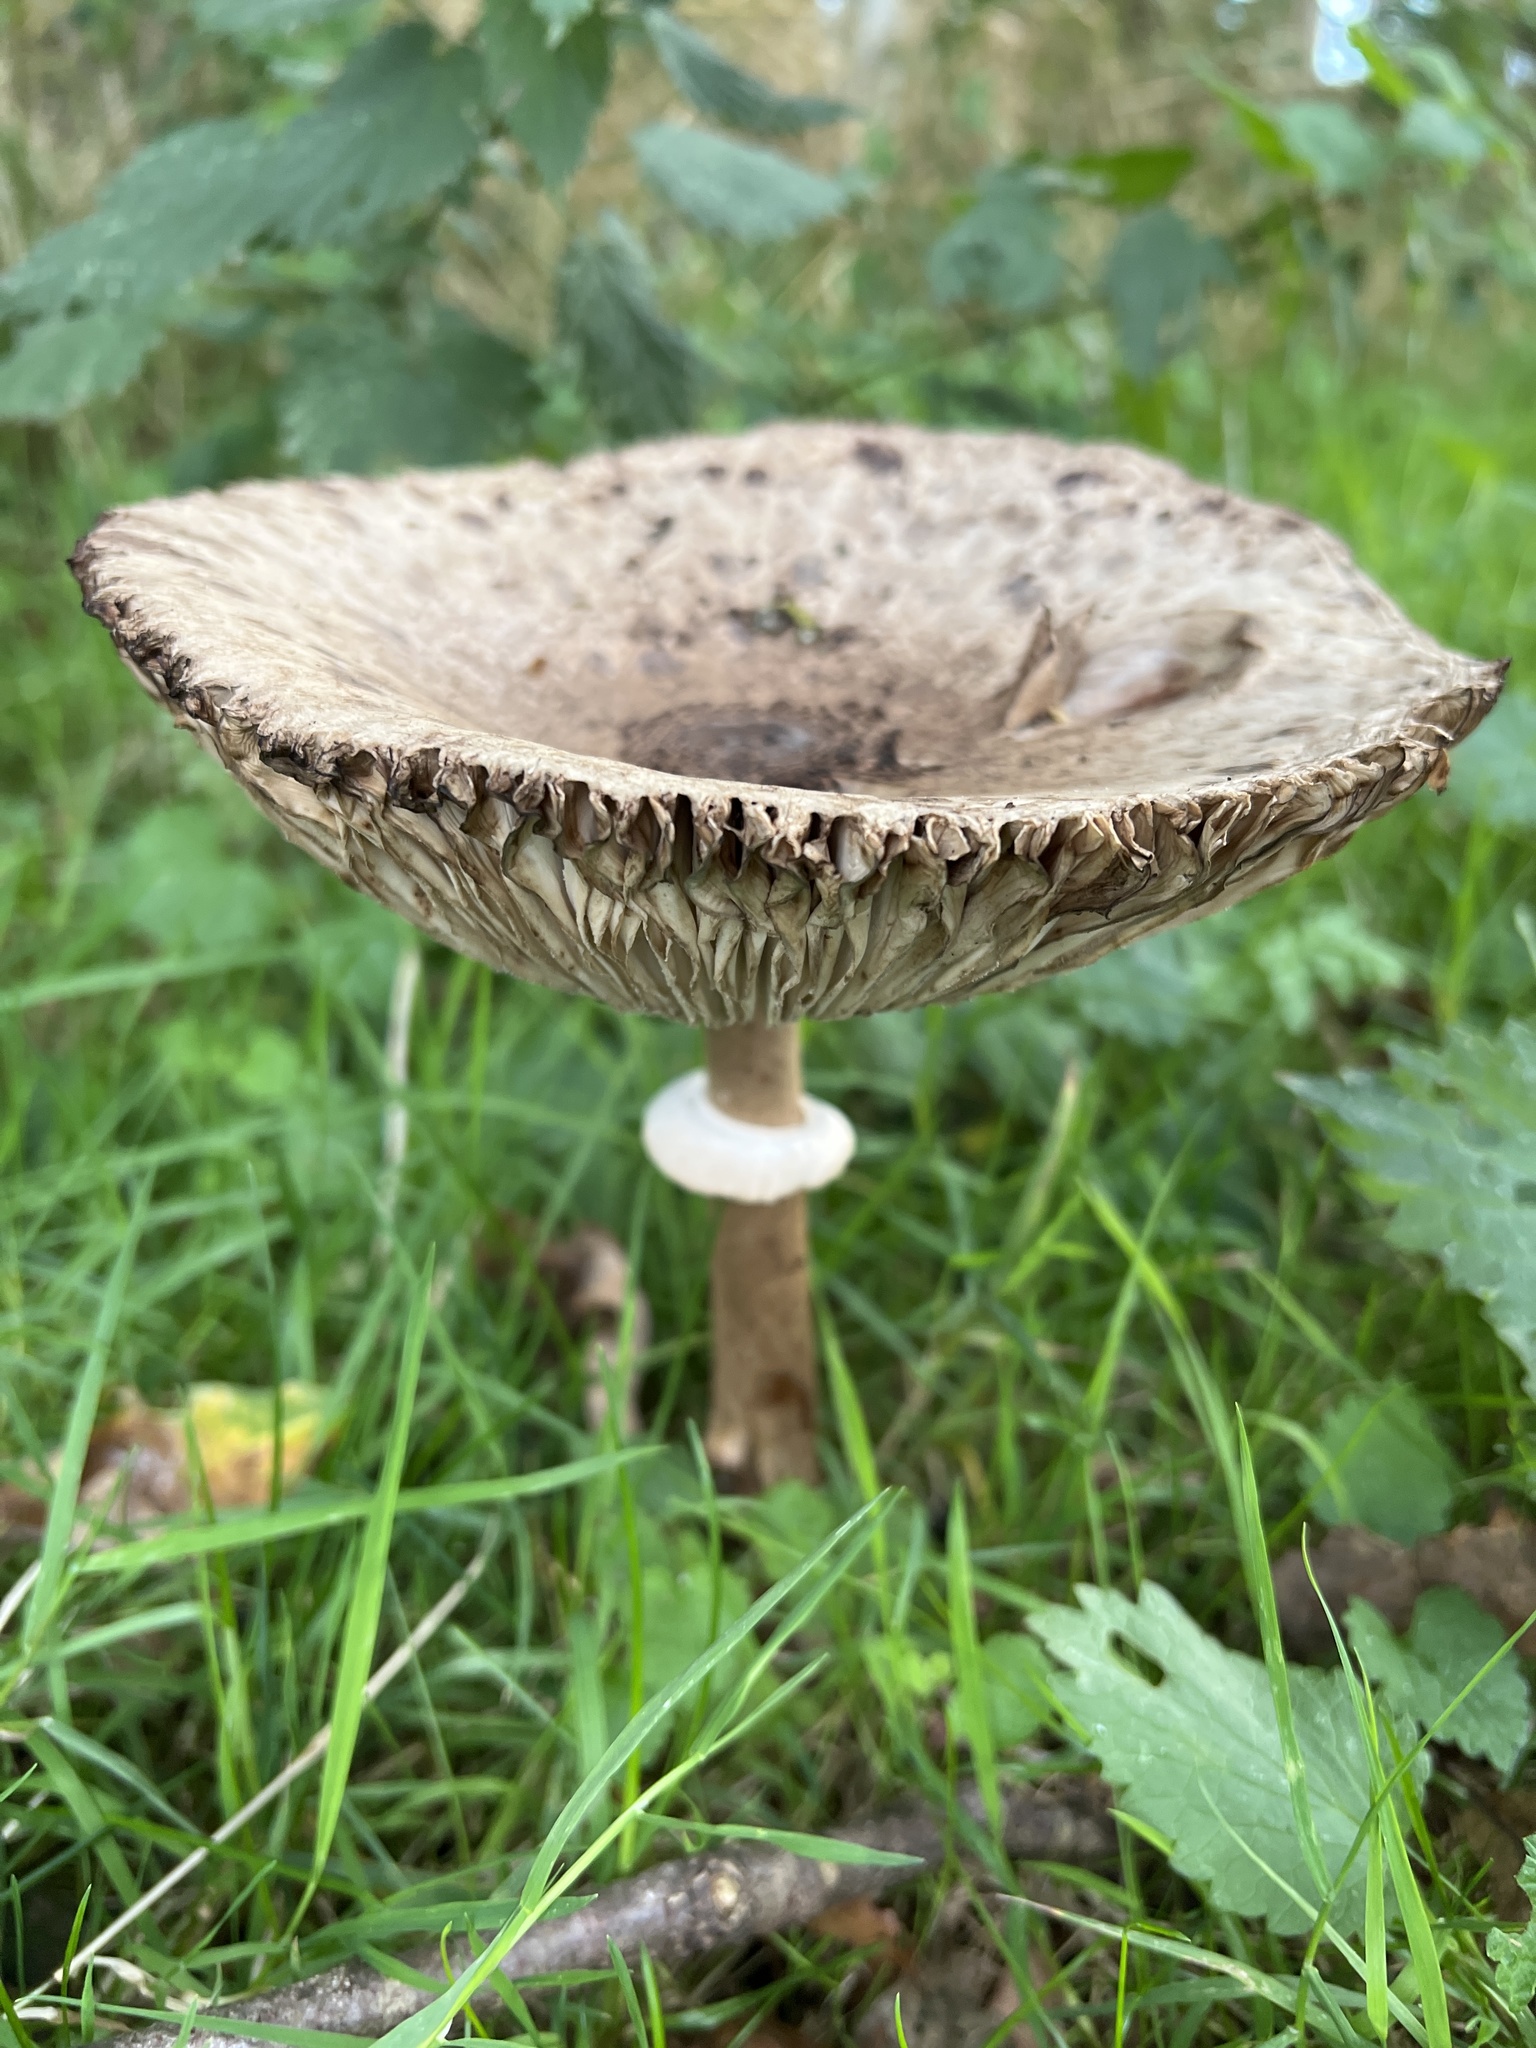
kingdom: Fungi
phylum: Basidiomycota
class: Agaricomycetes
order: Agaricales
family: Agaricaceae
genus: Macrolepiota
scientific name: Macrolepiota procera
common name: Parasol
